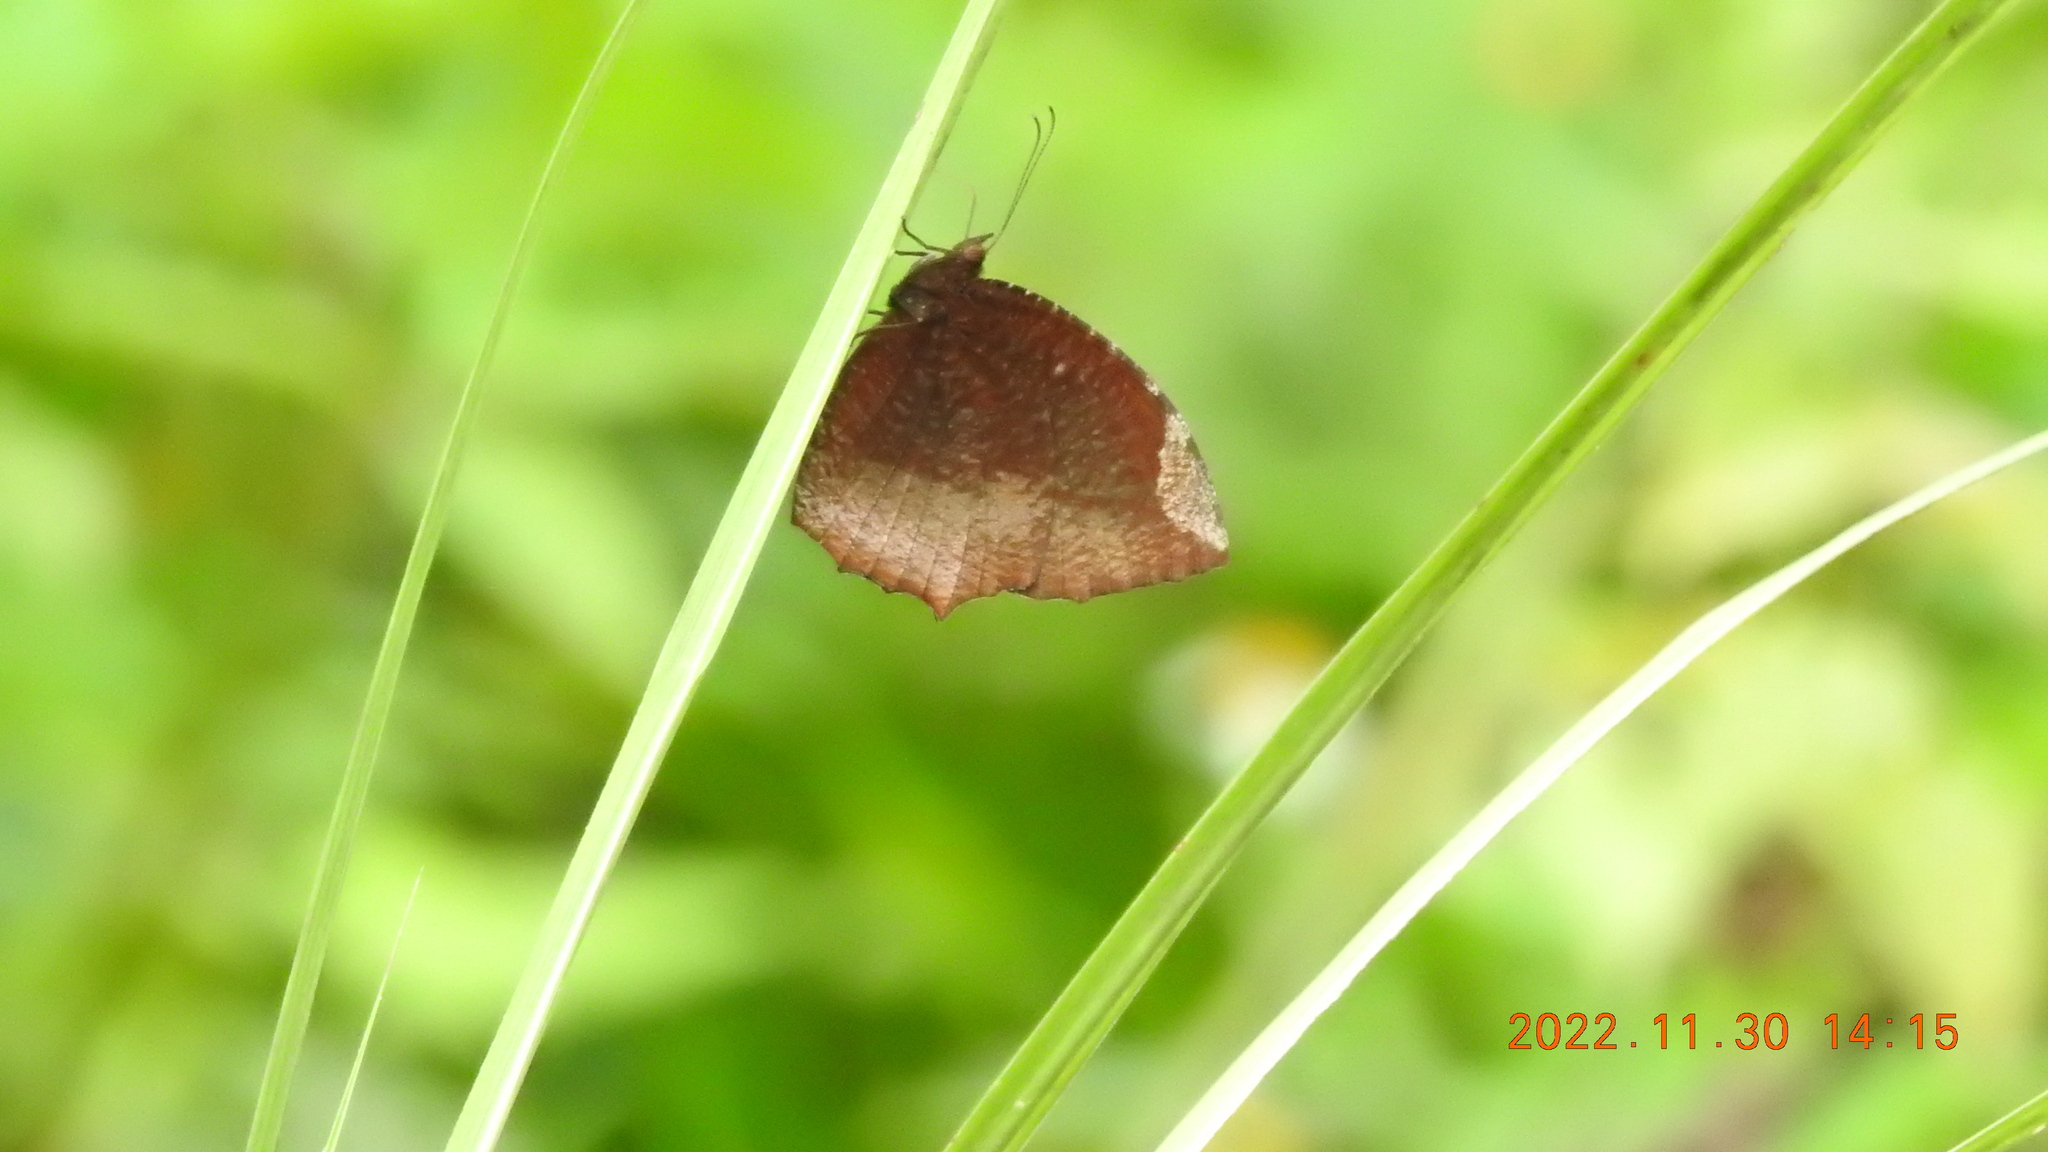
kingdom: Animalia
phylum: Arthropoda
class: Insecta
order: Lepidoptera
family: Nymphalidae
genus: Elymnias
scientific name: Elymnias hypermnestra
